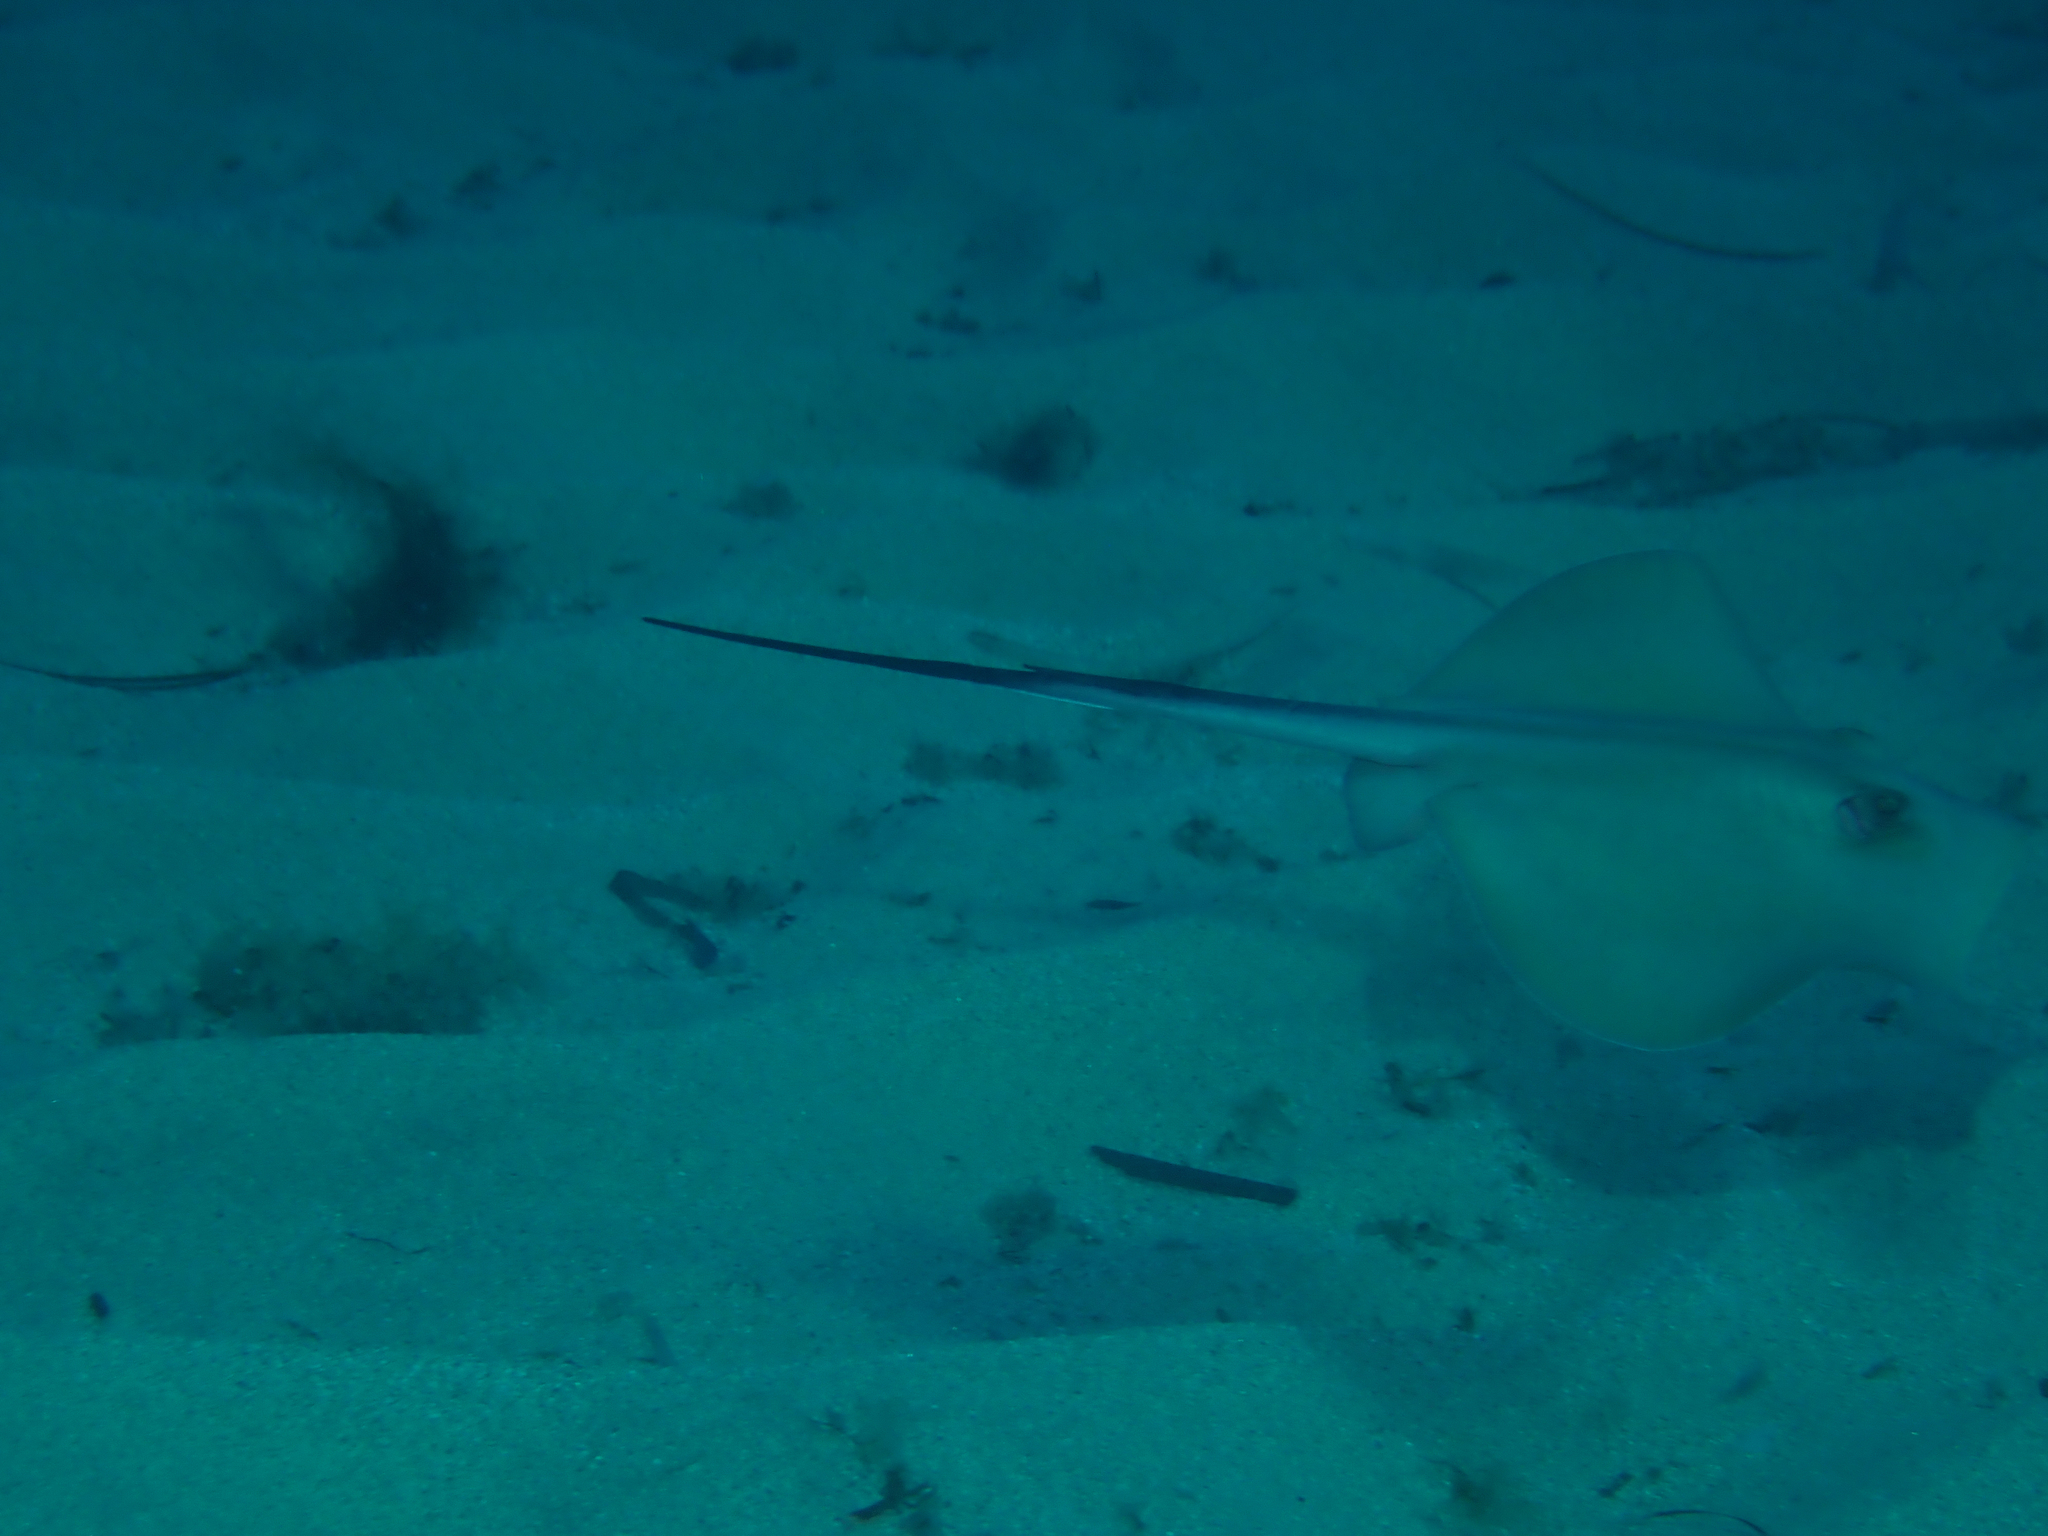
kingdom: Animalia
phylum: Chordata
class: Elasmobranchii
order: Myliobatiformes
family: Dasyatidae
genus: Dasyatis
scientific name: Dasyatis pastinaca
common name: Common stingray
